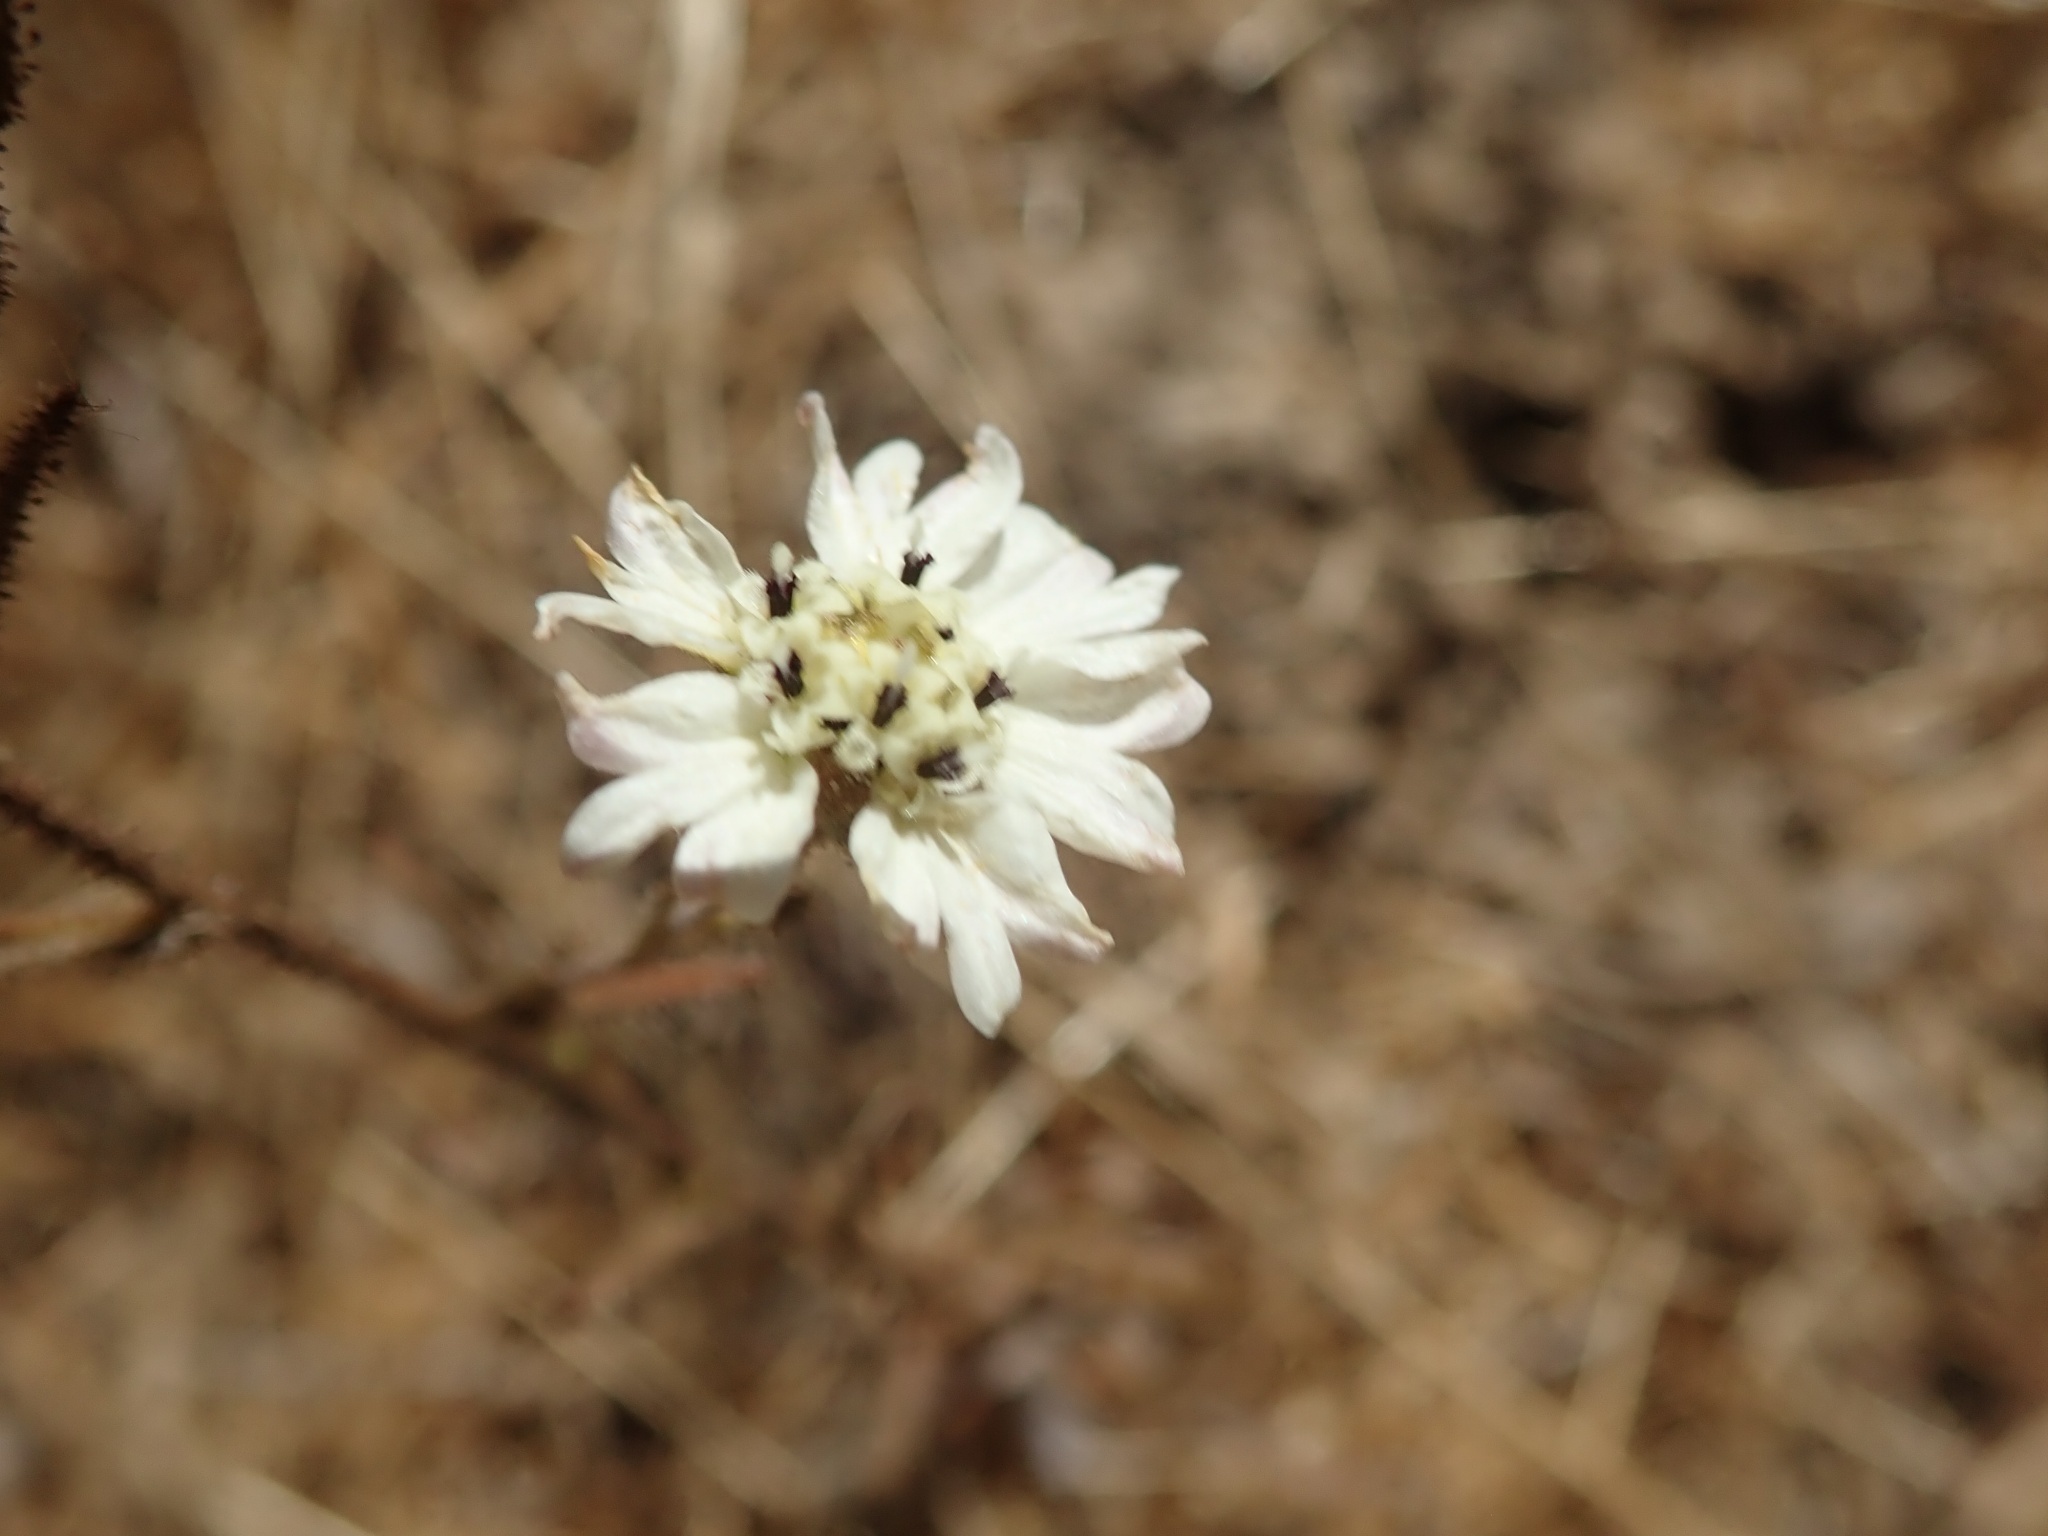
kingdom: Plantae
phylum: Tracheophyta
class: Magnoliopsida
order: Asterales
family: Asteraceae
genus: Hemizonia
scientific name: Hemizonia congesta
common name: Hayfield tarweed
